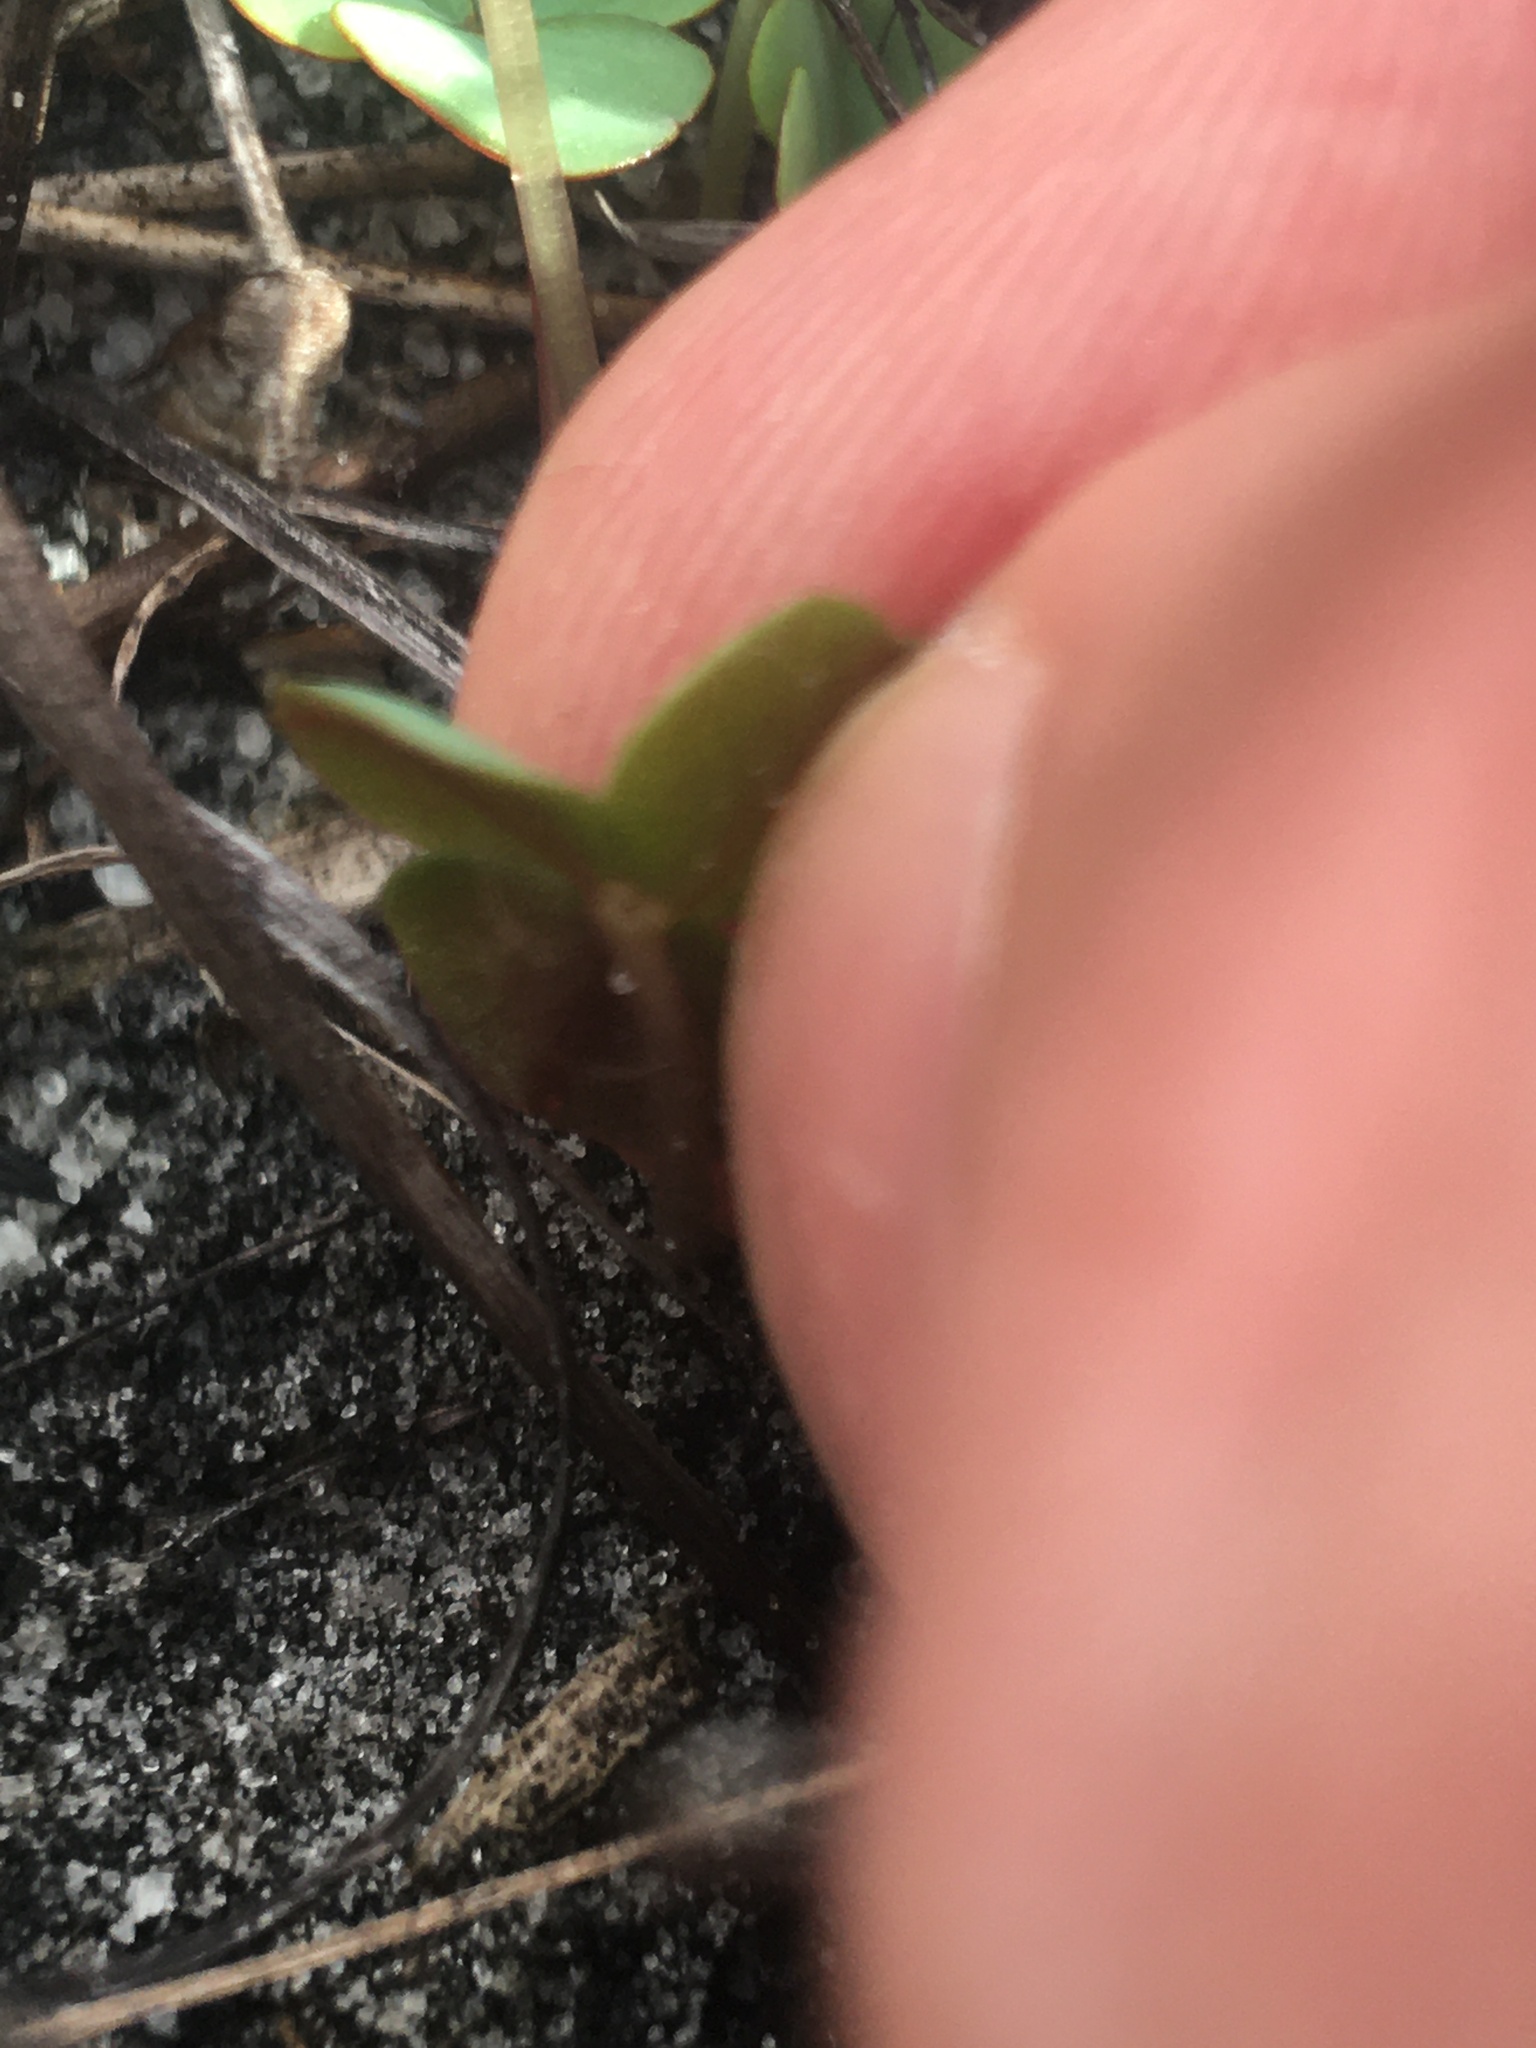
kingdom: Plantae
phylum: Tracheophyta
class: Magnoliopsida
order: Oxalidales
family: Oxalidaceae
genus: Oxalis
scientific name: Oxalis commutata
